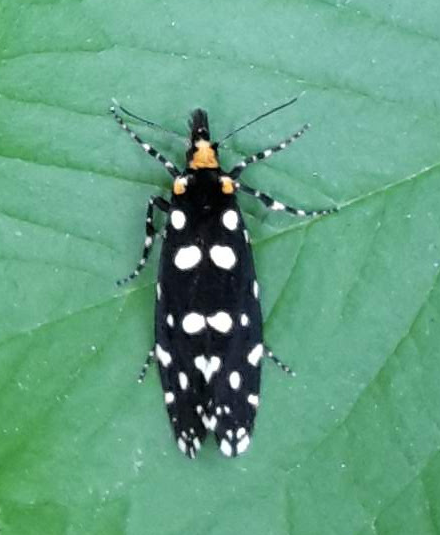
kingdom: Animalia
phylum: Arthropoda
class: Insecta
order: Lepidoptera
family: Tineidae
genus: Euplocamus
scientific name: Euplocamus anthracinalis
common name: Black clothes
